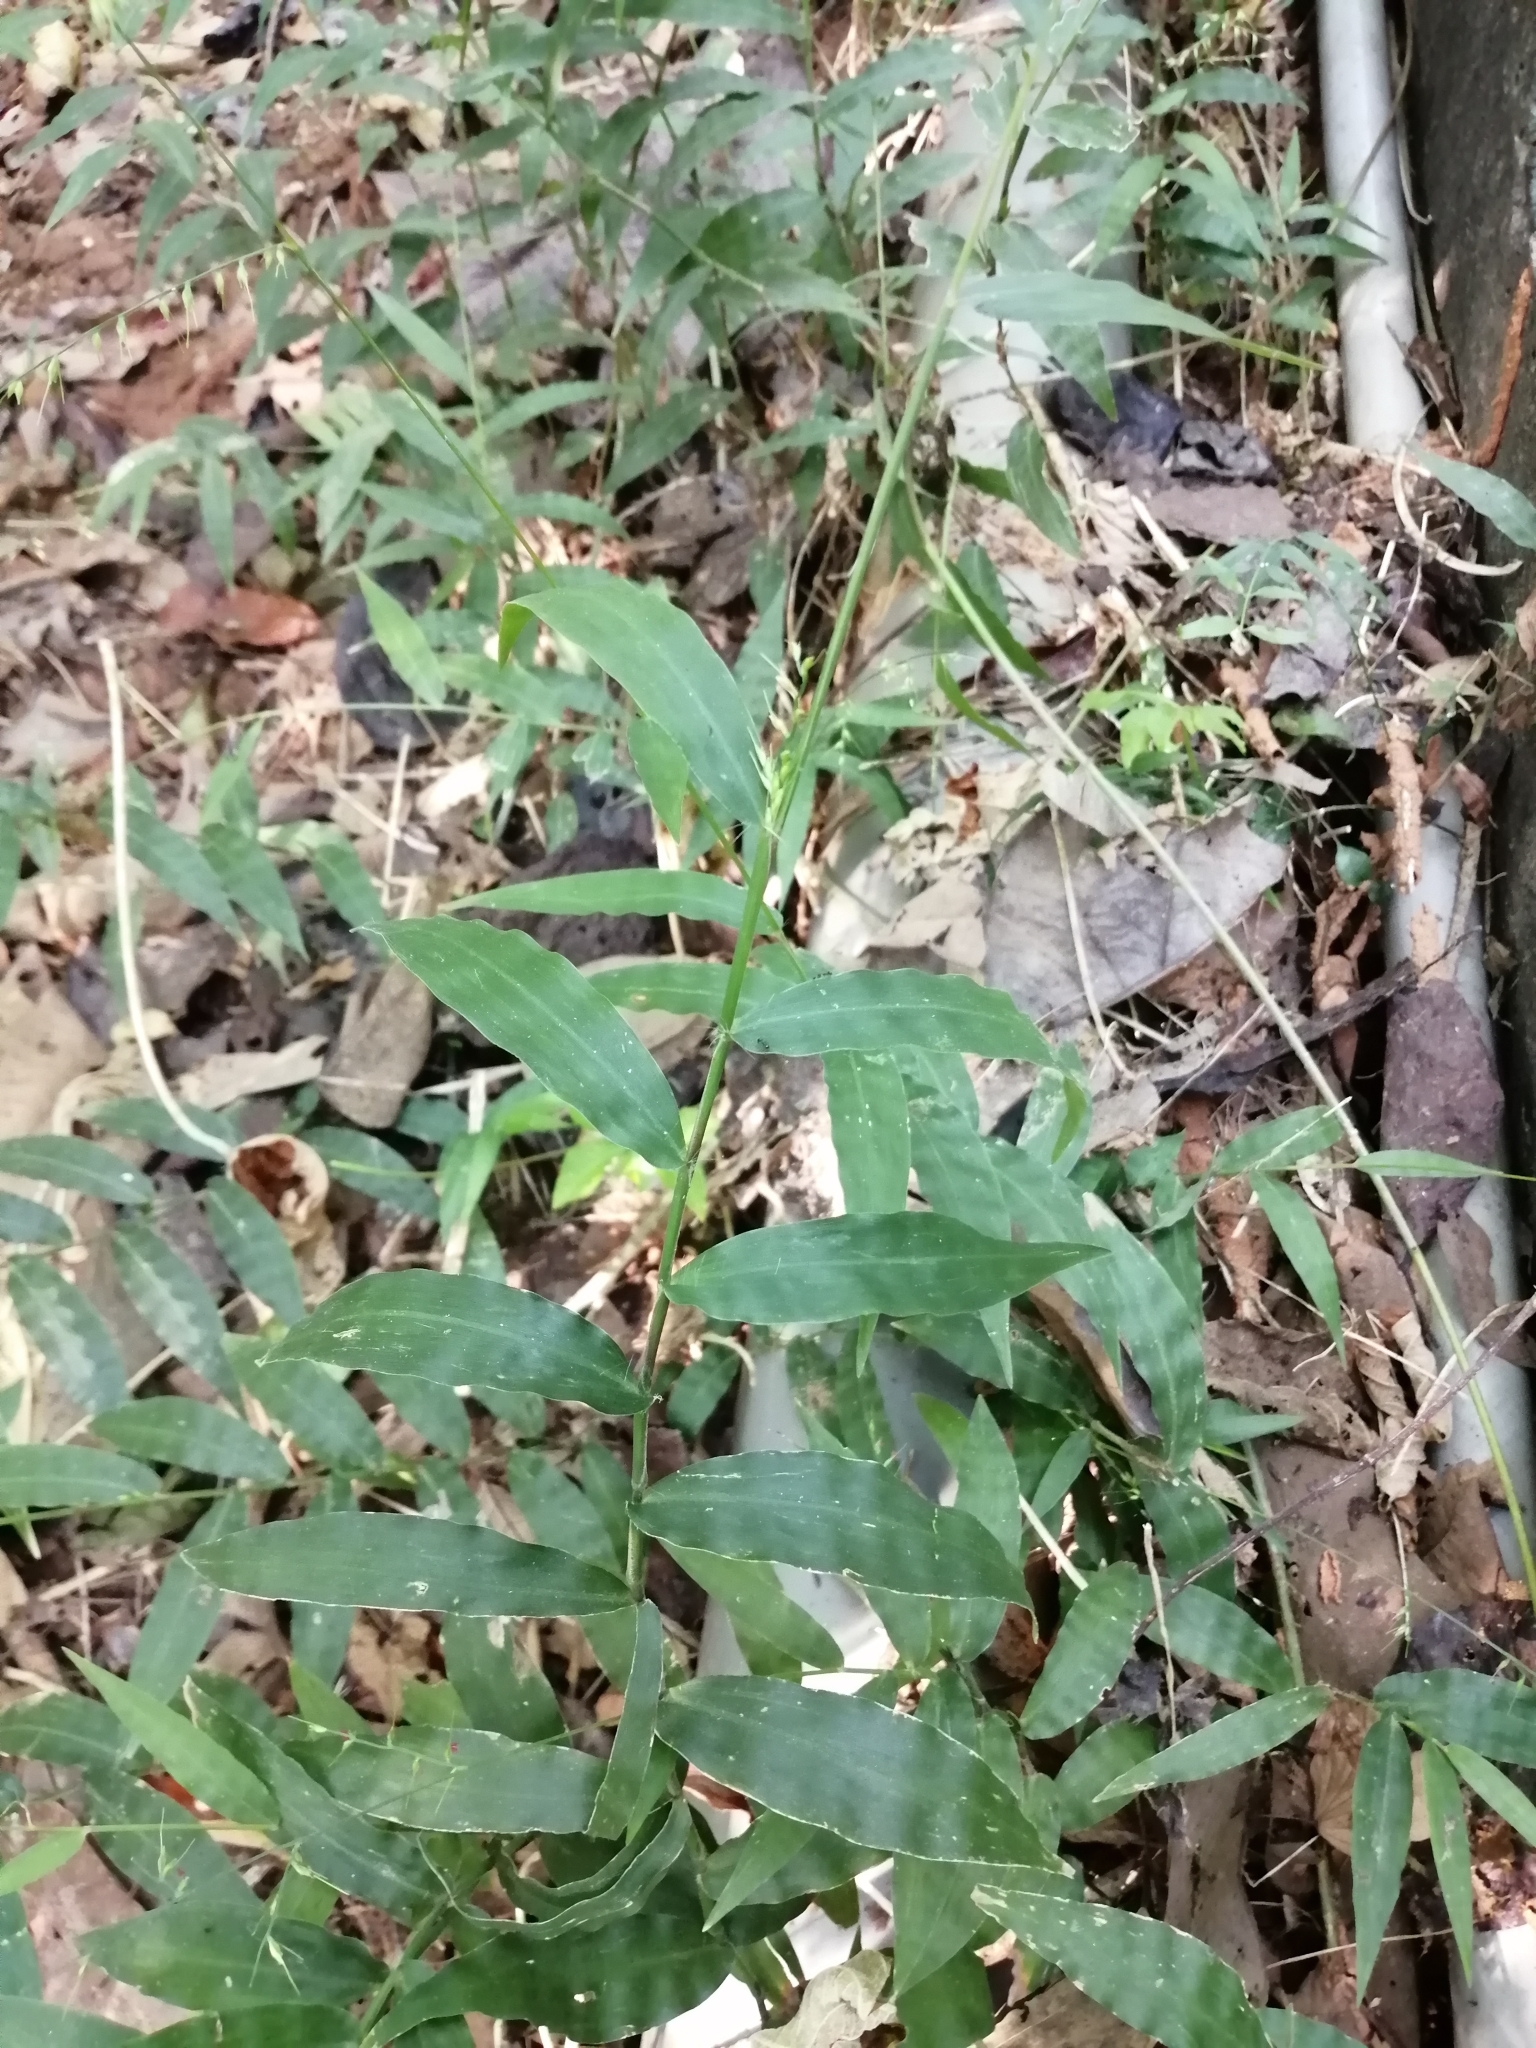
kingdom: Plantae
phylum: Tracheophyta
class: Liliopsida
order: Poales
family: Poaceae
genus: Oplismenus
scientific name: Oplismenus compositus
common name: Running mountain grass
